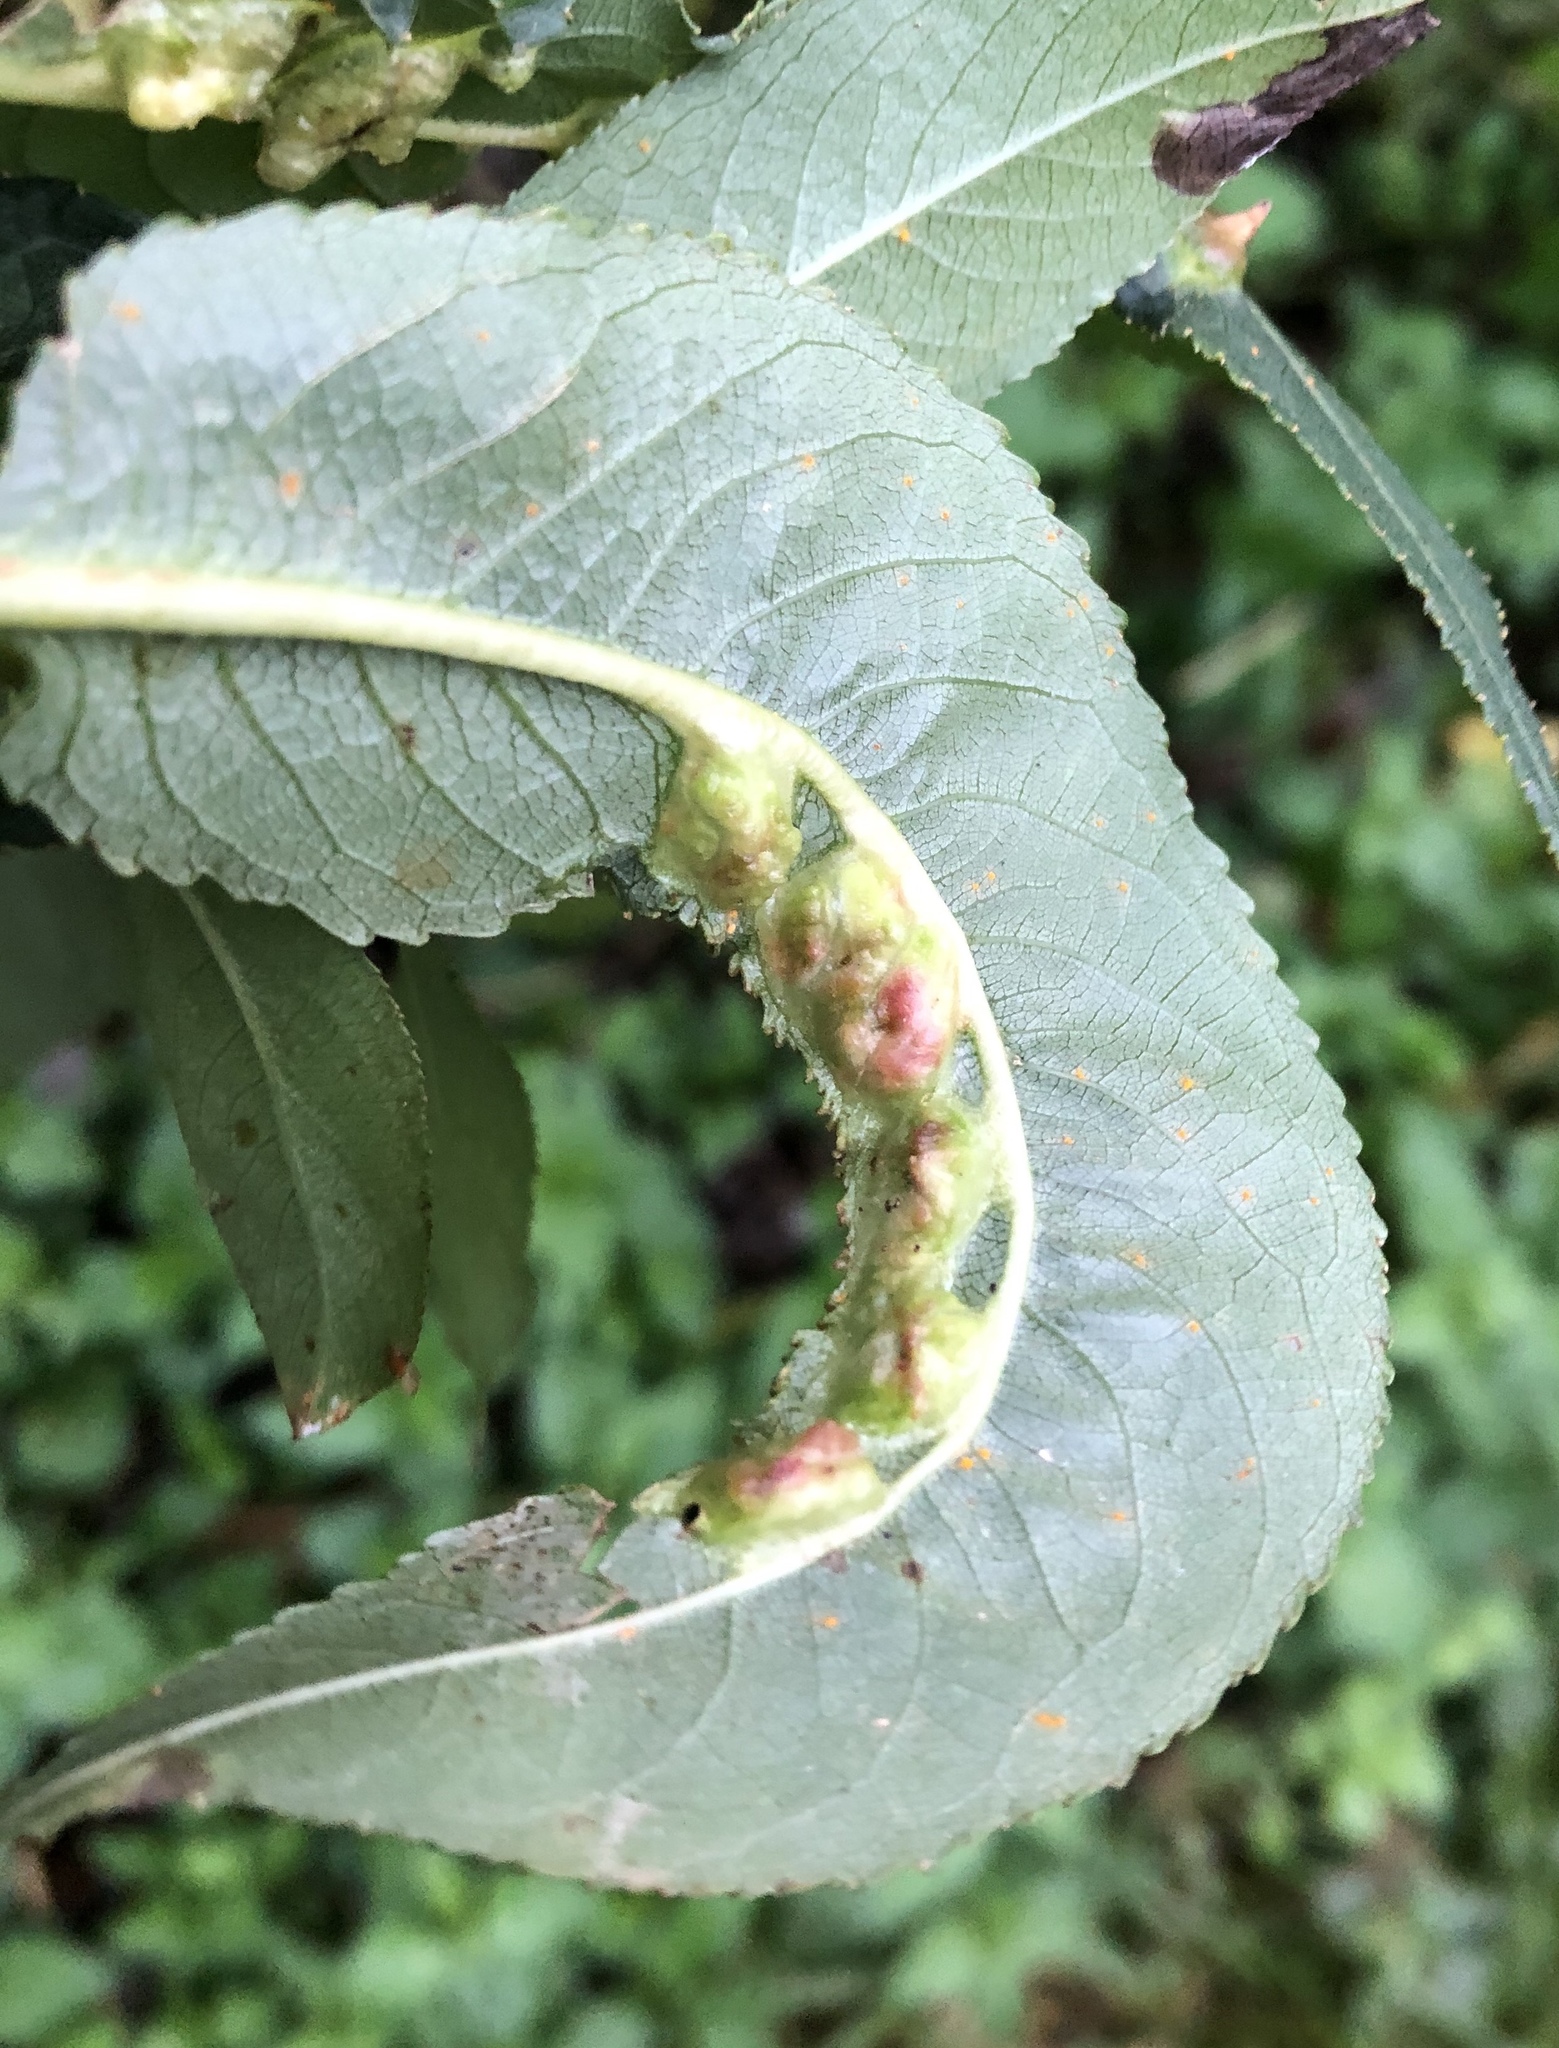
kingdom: Animalia
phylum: Arthropoda
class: Insecta
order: Hymenoptera
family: Tenthredinidae
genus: Pontania
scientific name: Pontania proxima
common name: Common sawfly
